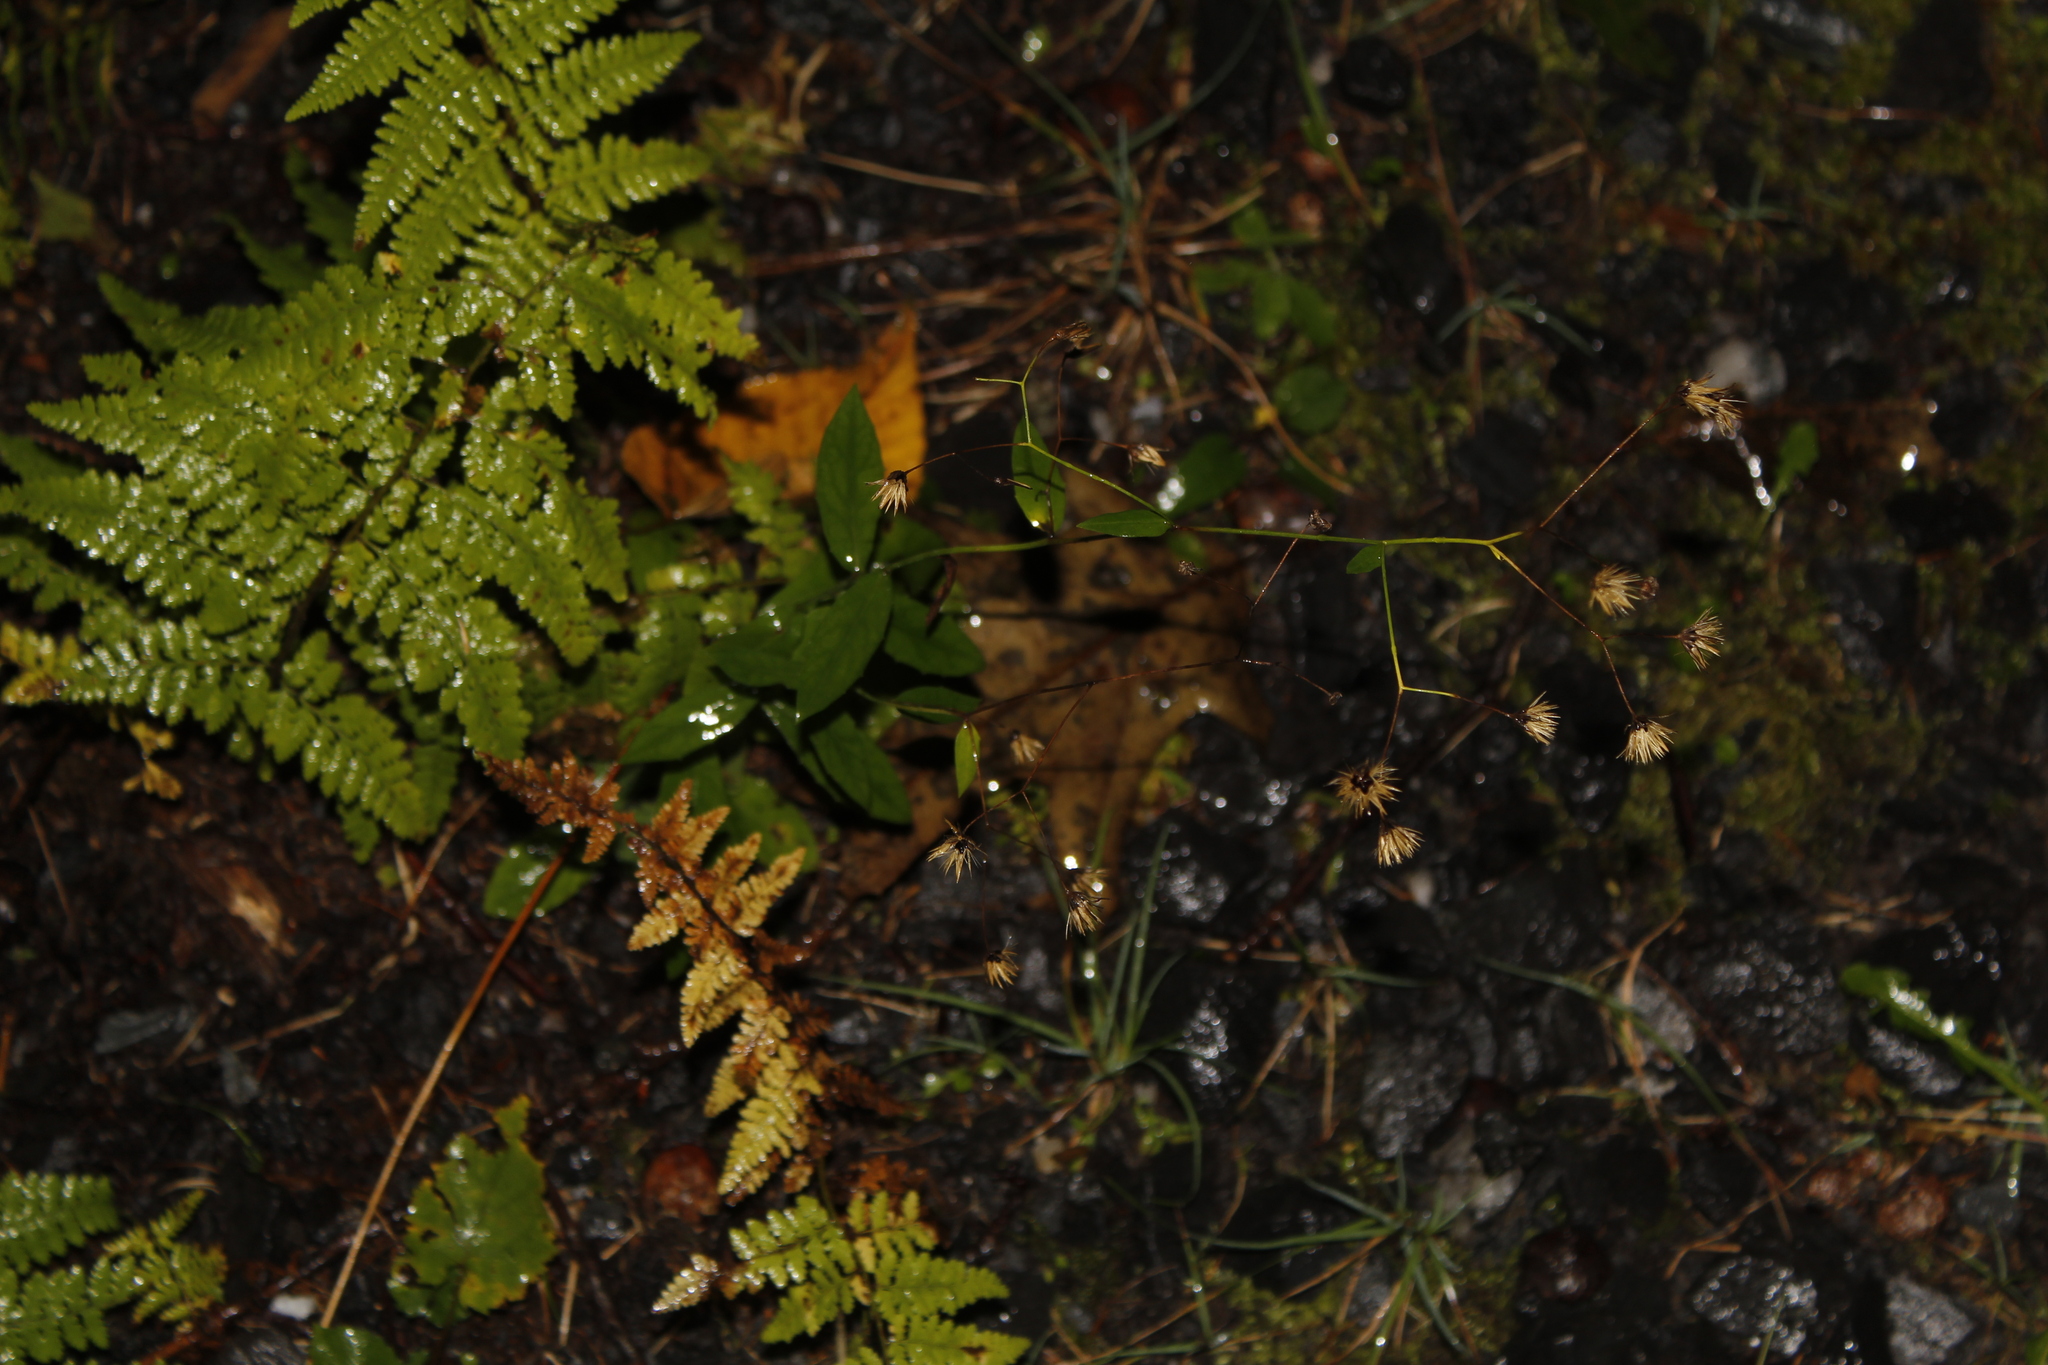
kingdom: Plantae
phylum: Tracheophyta
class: Magnoliopsida
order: Asterales
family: Asteraceae
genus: Hieracium
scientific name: Hieracium paniculatum
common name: Allegheny hawkweed
